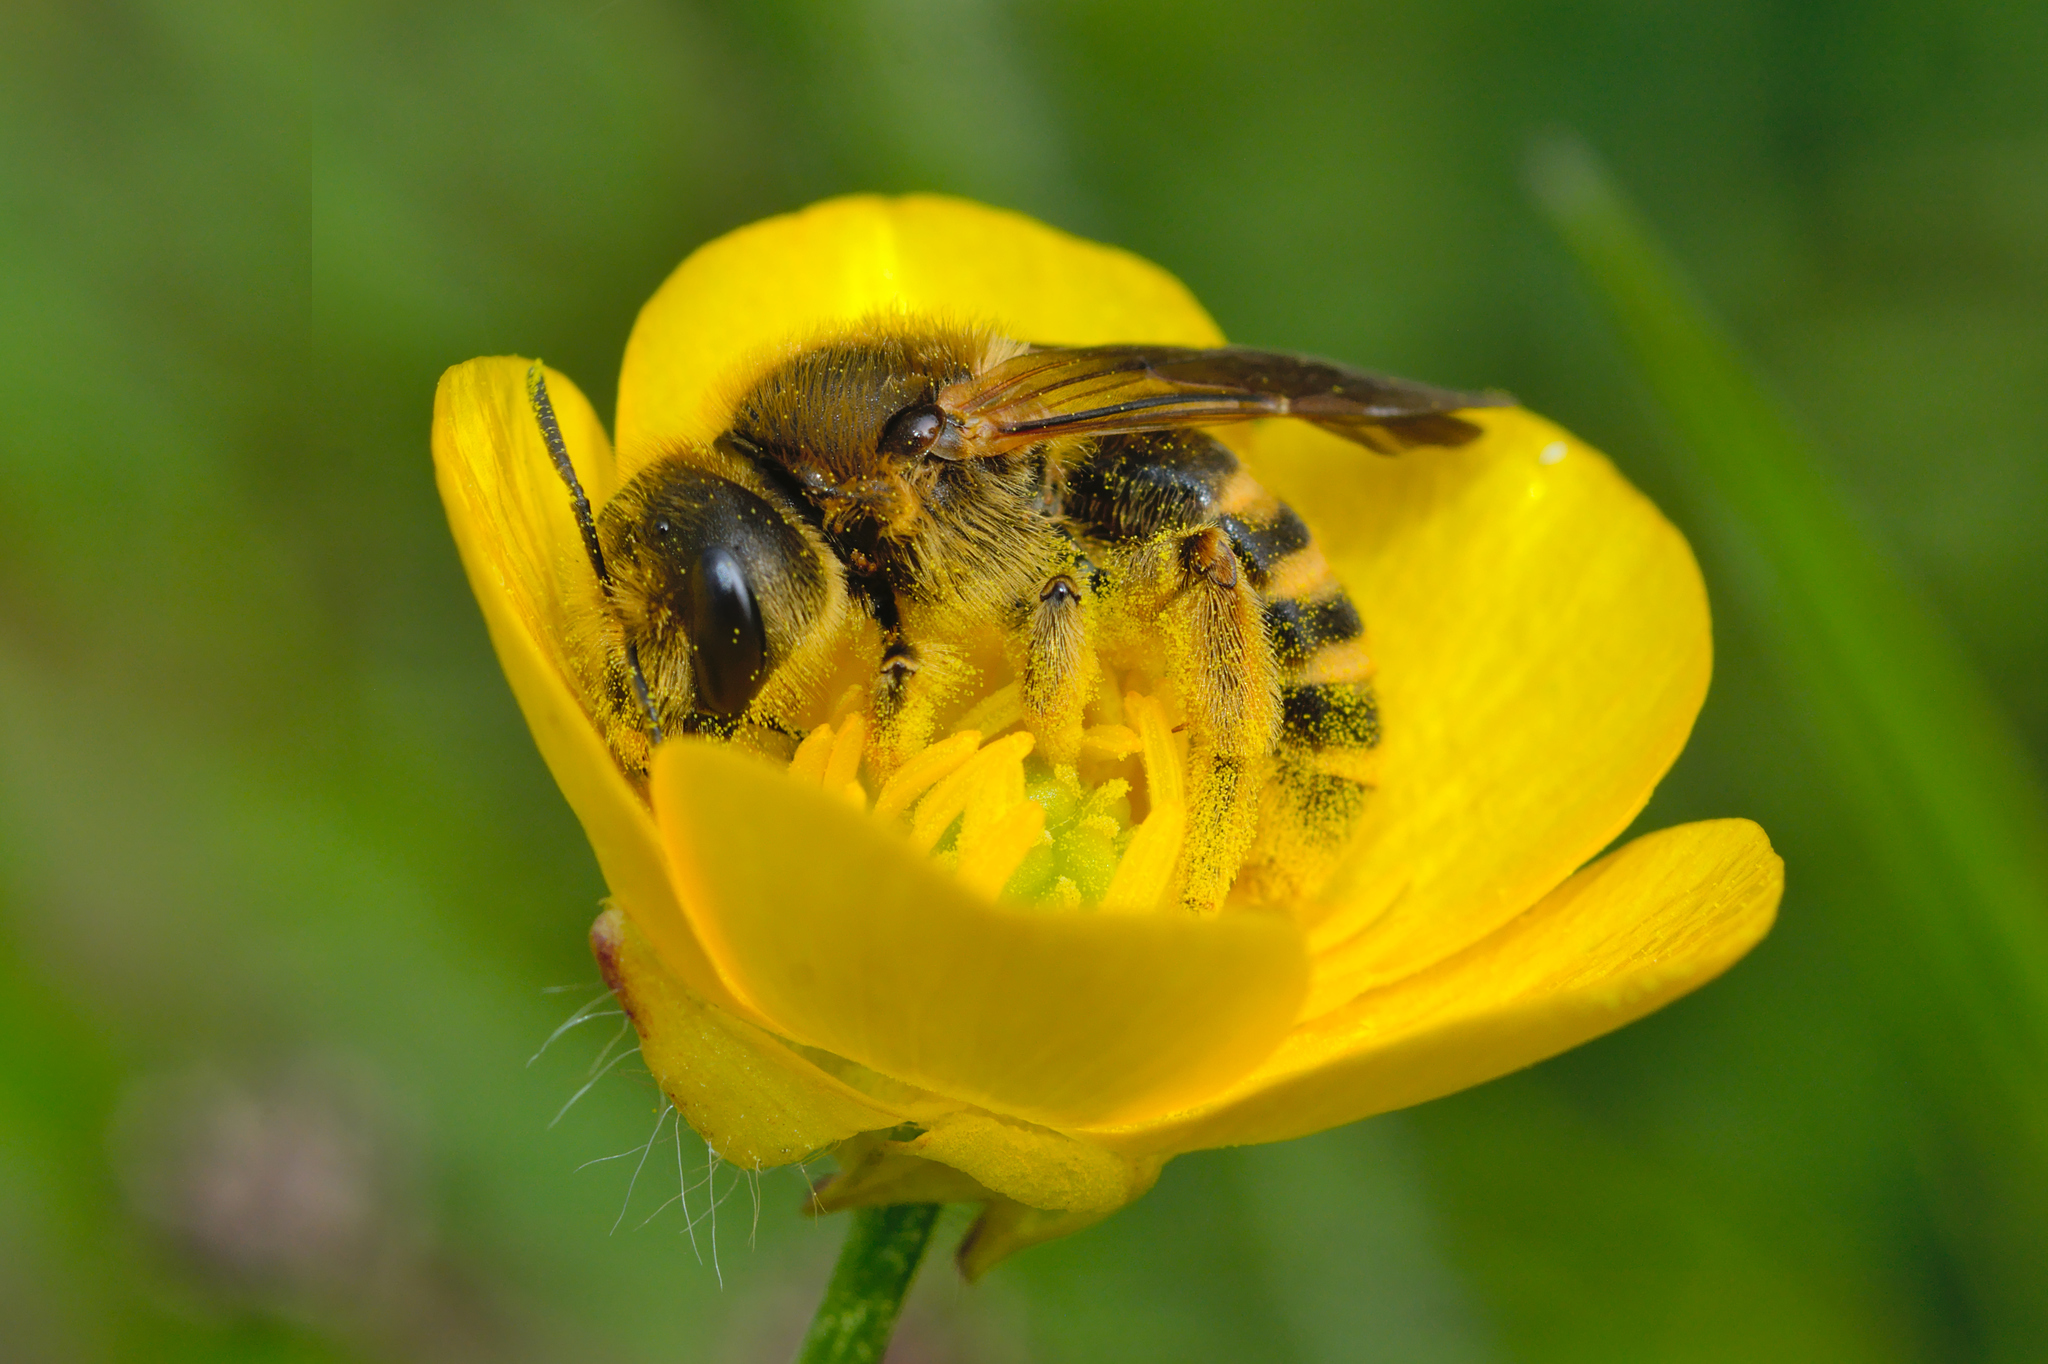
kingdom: Animalia
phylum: Arthropoda
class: Insecta
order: Hymenoptera
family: Halictidae
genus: Halictus
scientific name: Halictus scabiosae
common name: Great banded furrow bee
